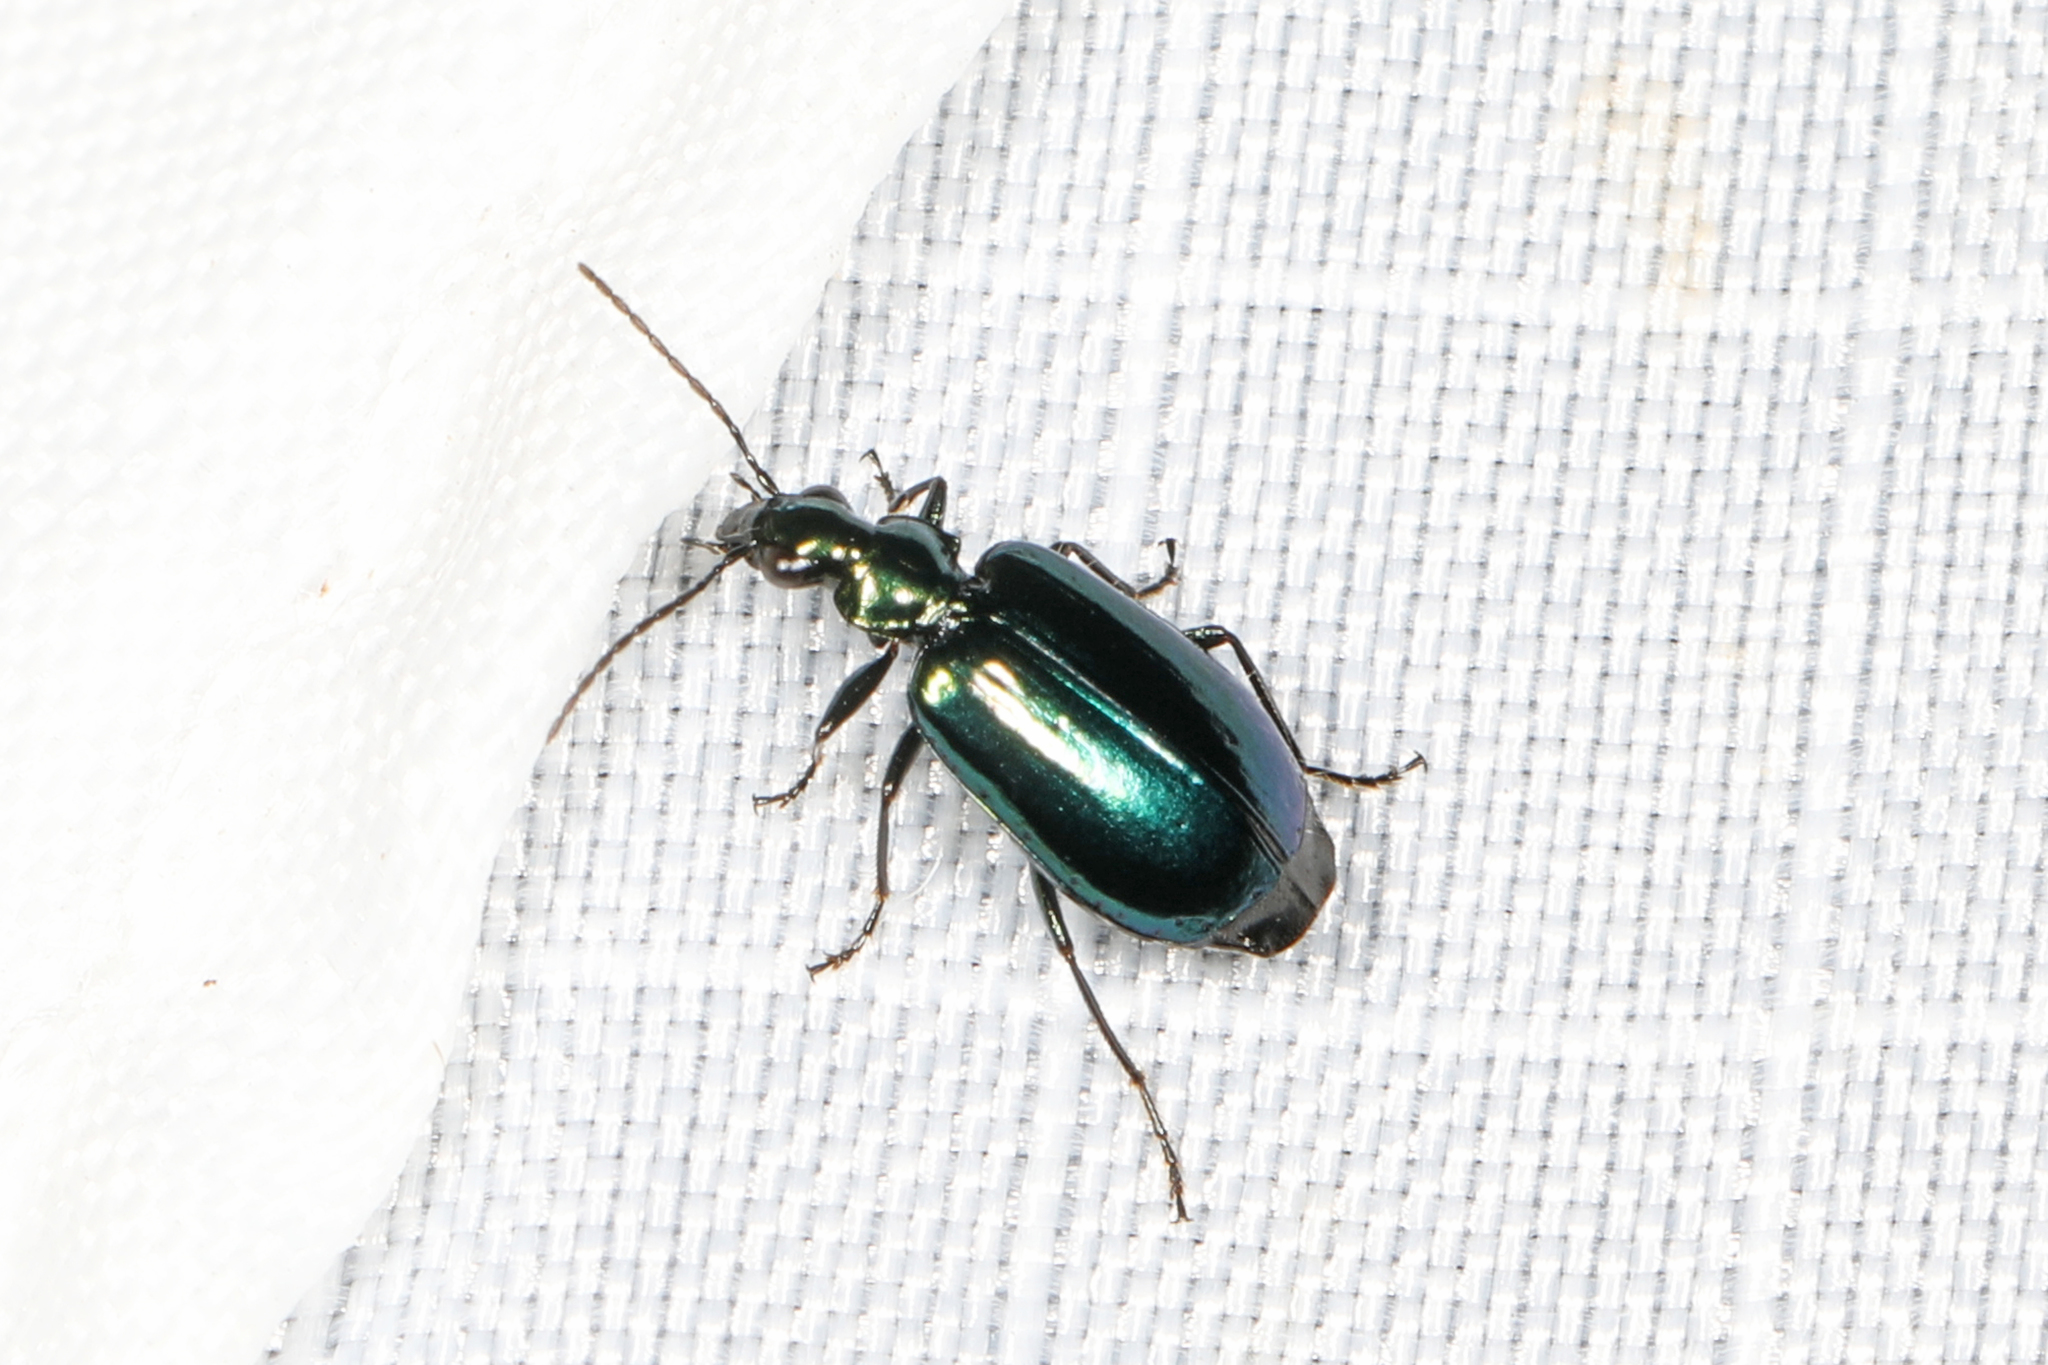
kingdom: Animalia
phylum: Arthropoda
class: Insecta
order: Coleoptera
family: Carabidae
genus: Lebia
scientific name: Lebia viridis
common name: Flower lebia beetle
